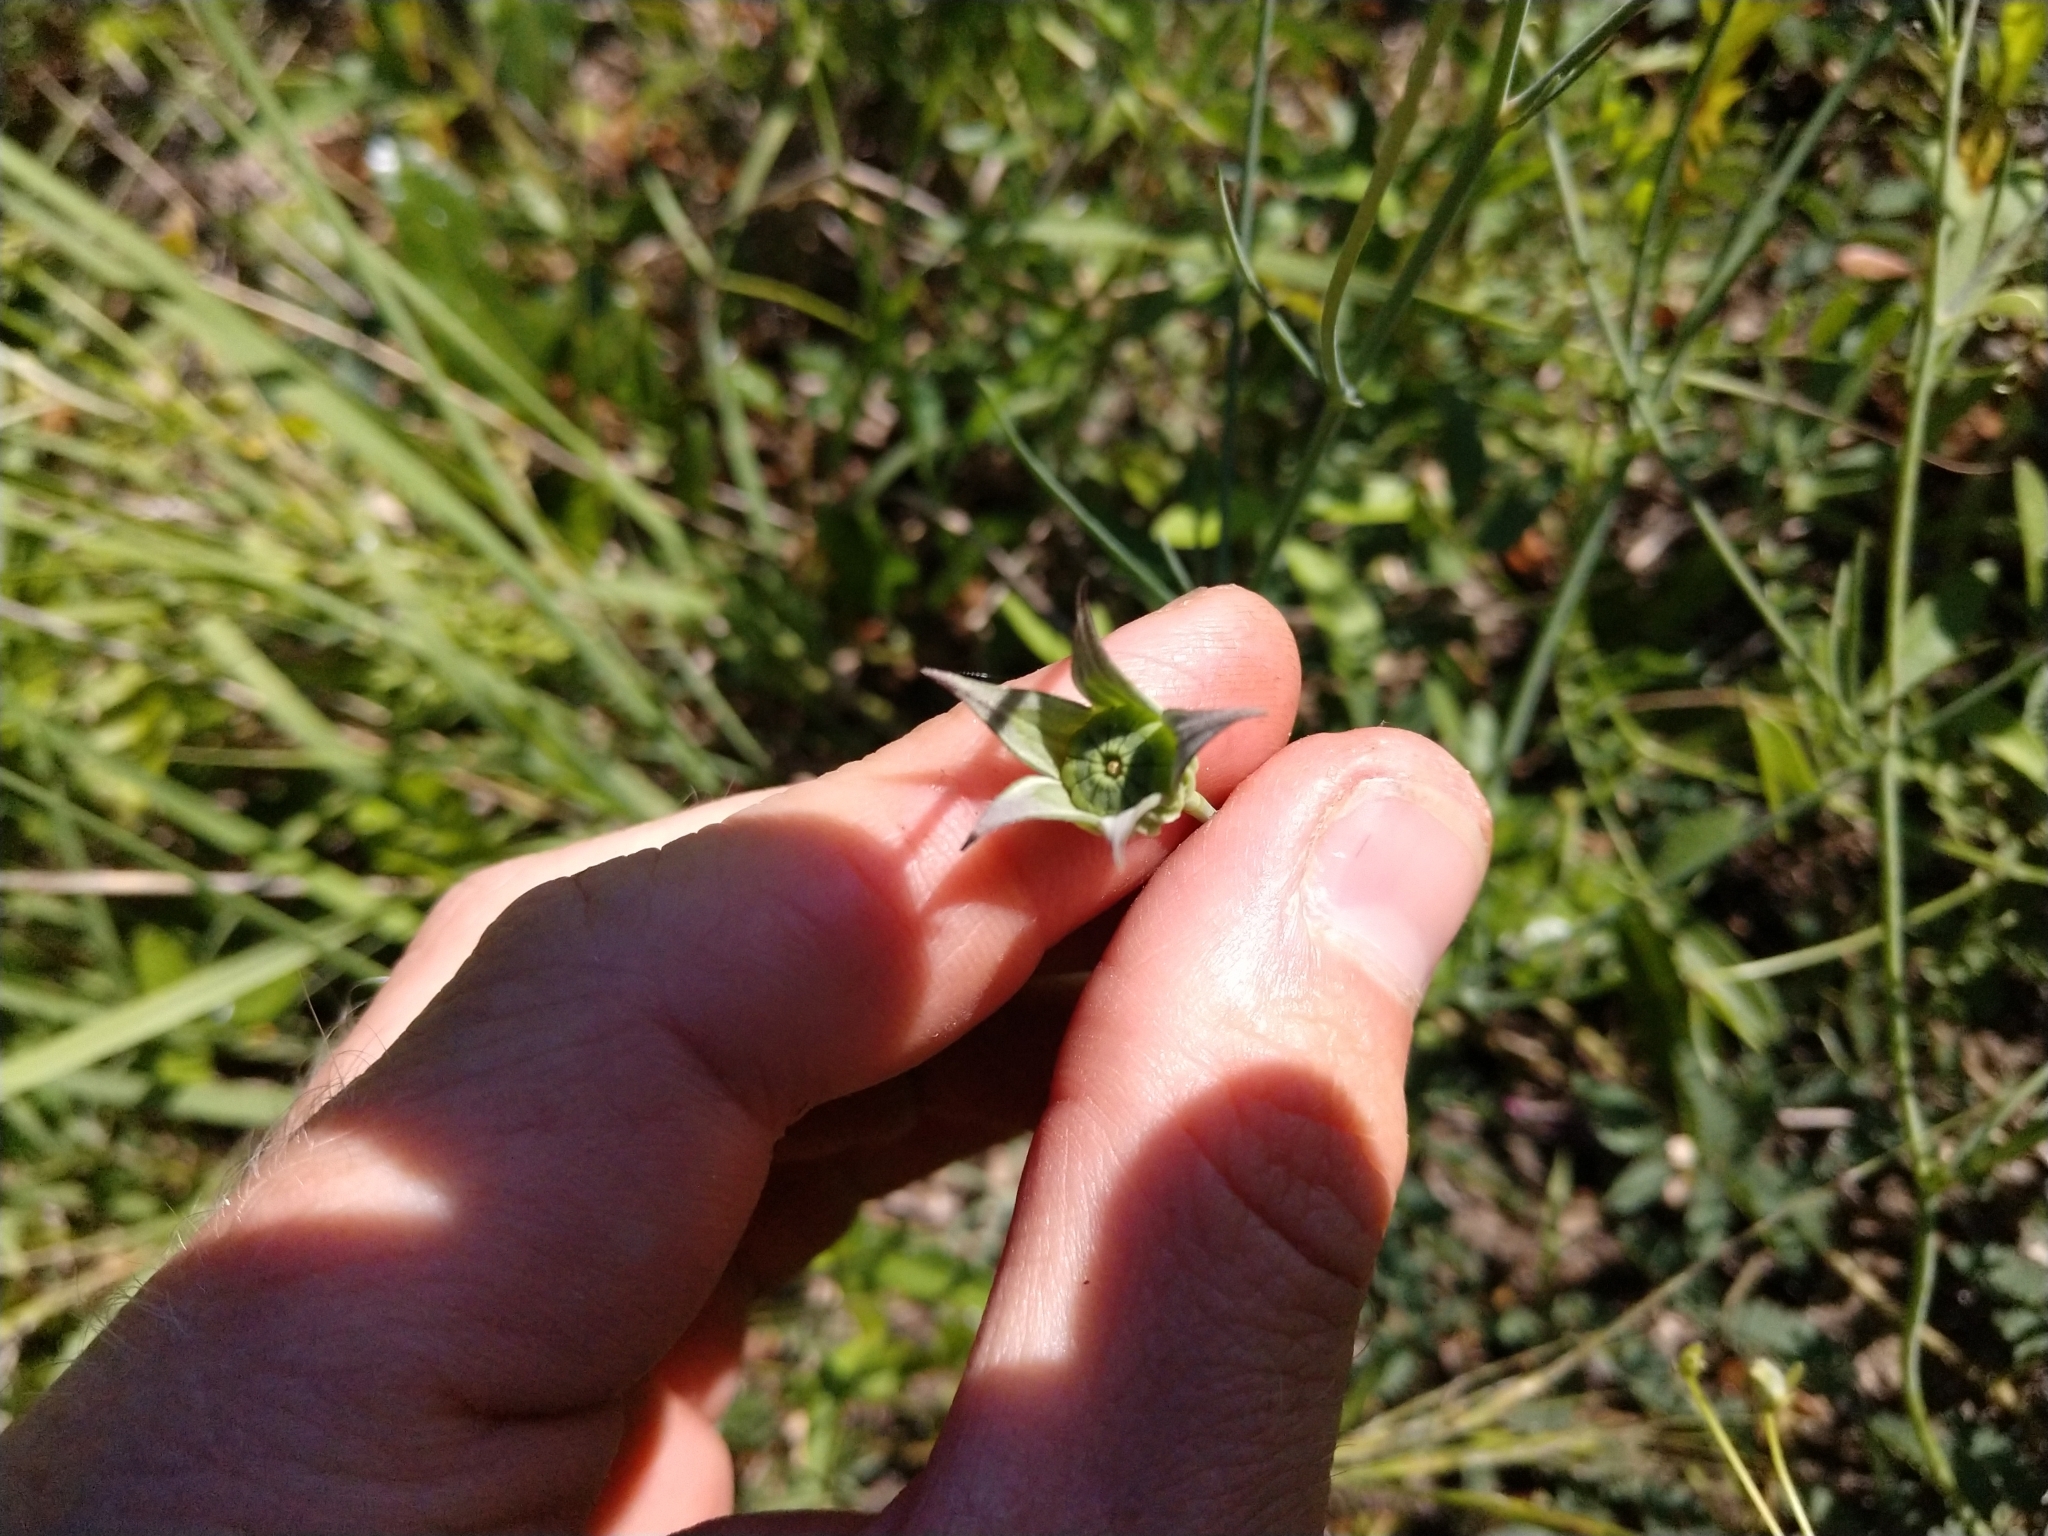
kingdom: Plantae
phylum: Tracheophyta
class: Magnoliopsida
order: Malvales
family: Malvaceae
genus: Callirhoe
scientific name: Callirhoe pedata
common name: Finger poppy-mallow
